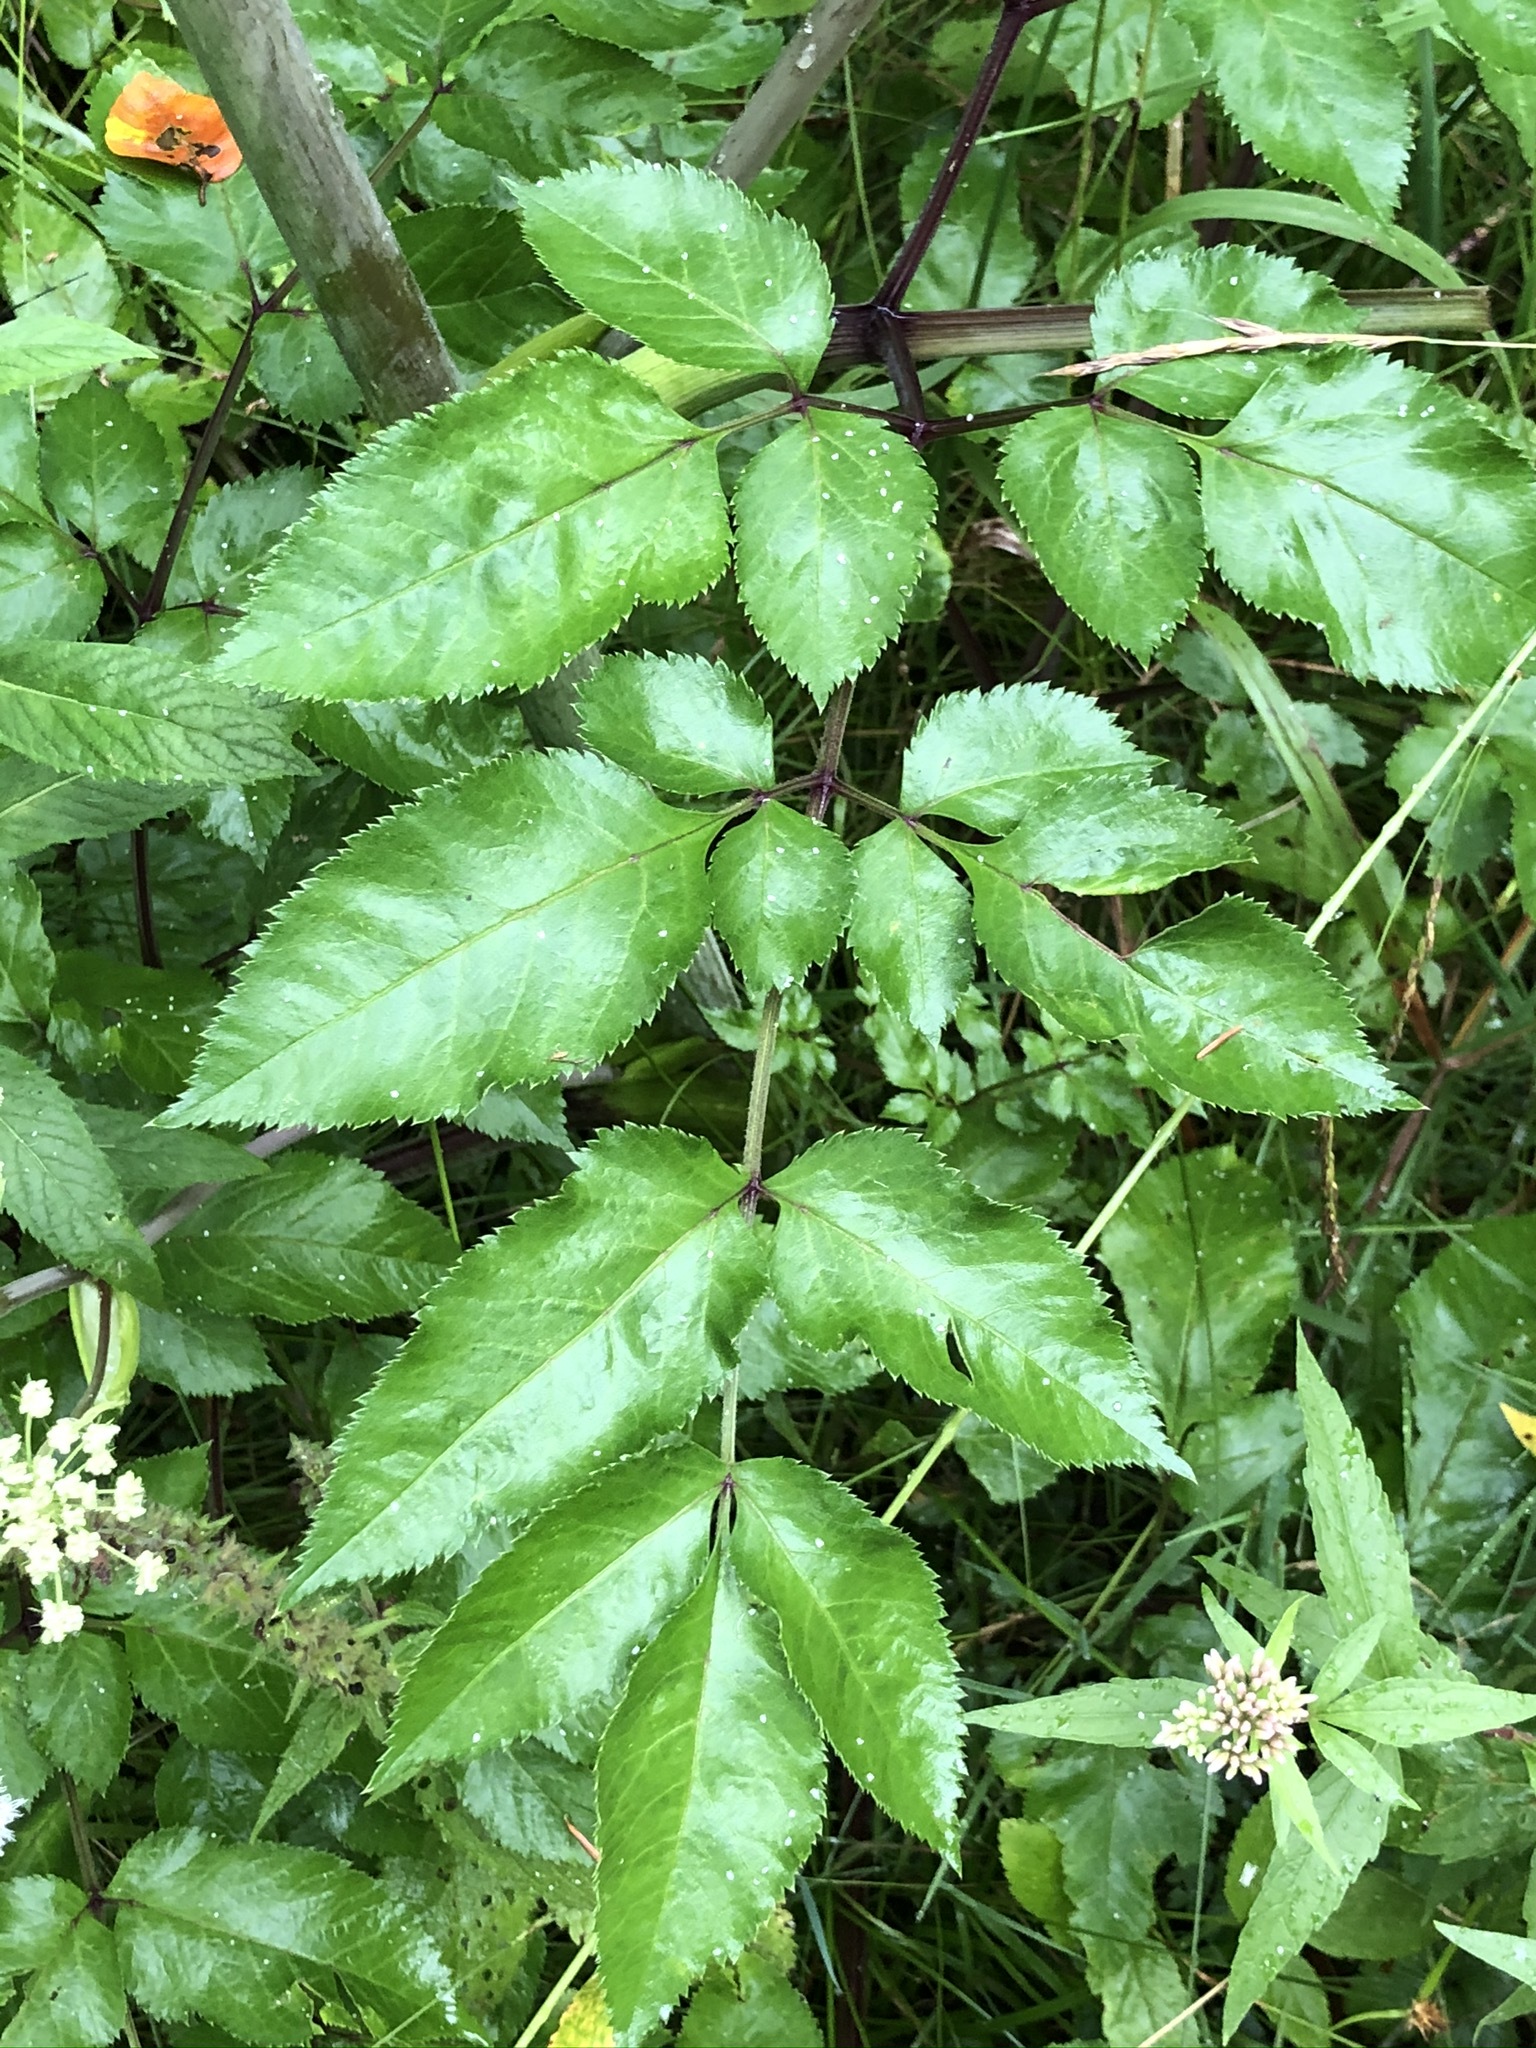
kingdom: Plantae
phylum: Tracheophyta
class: Magnoliopsida
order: Apiales
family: Apiaceae
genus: Angelica
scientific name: Angelica sylvestris
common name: Wild angelica
